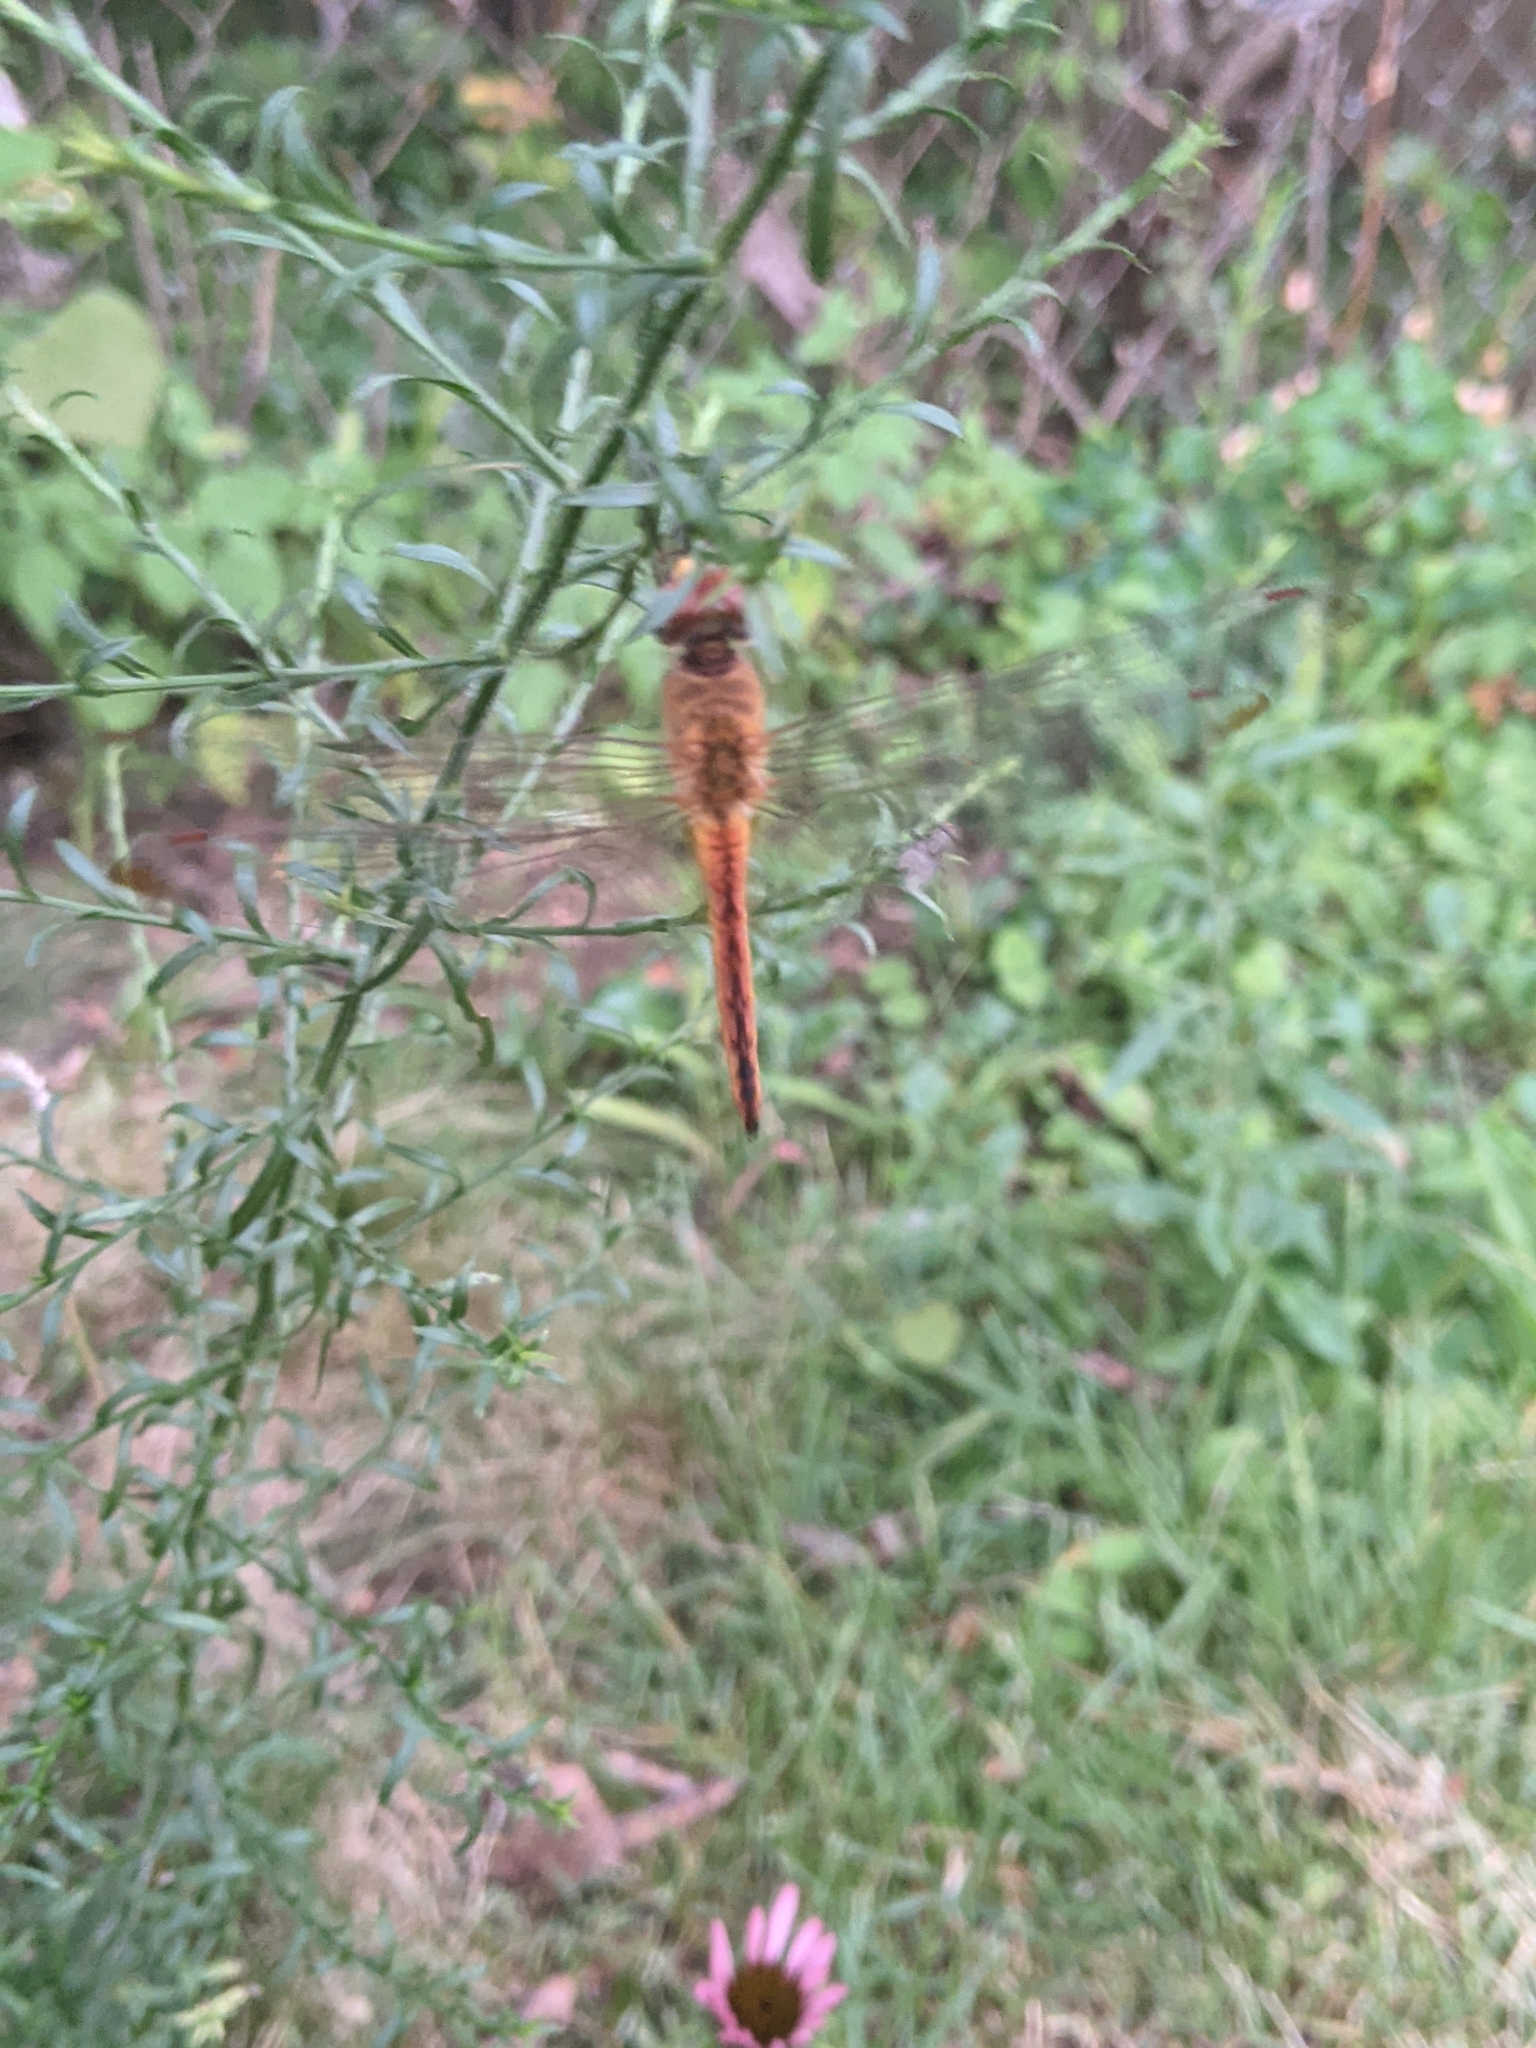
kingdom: Animalia
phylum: Arthropoda
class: Insecta
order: Odonata
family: Libellulidae
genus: Pantala
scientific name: Pantala flavescens
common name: Wandering glider
